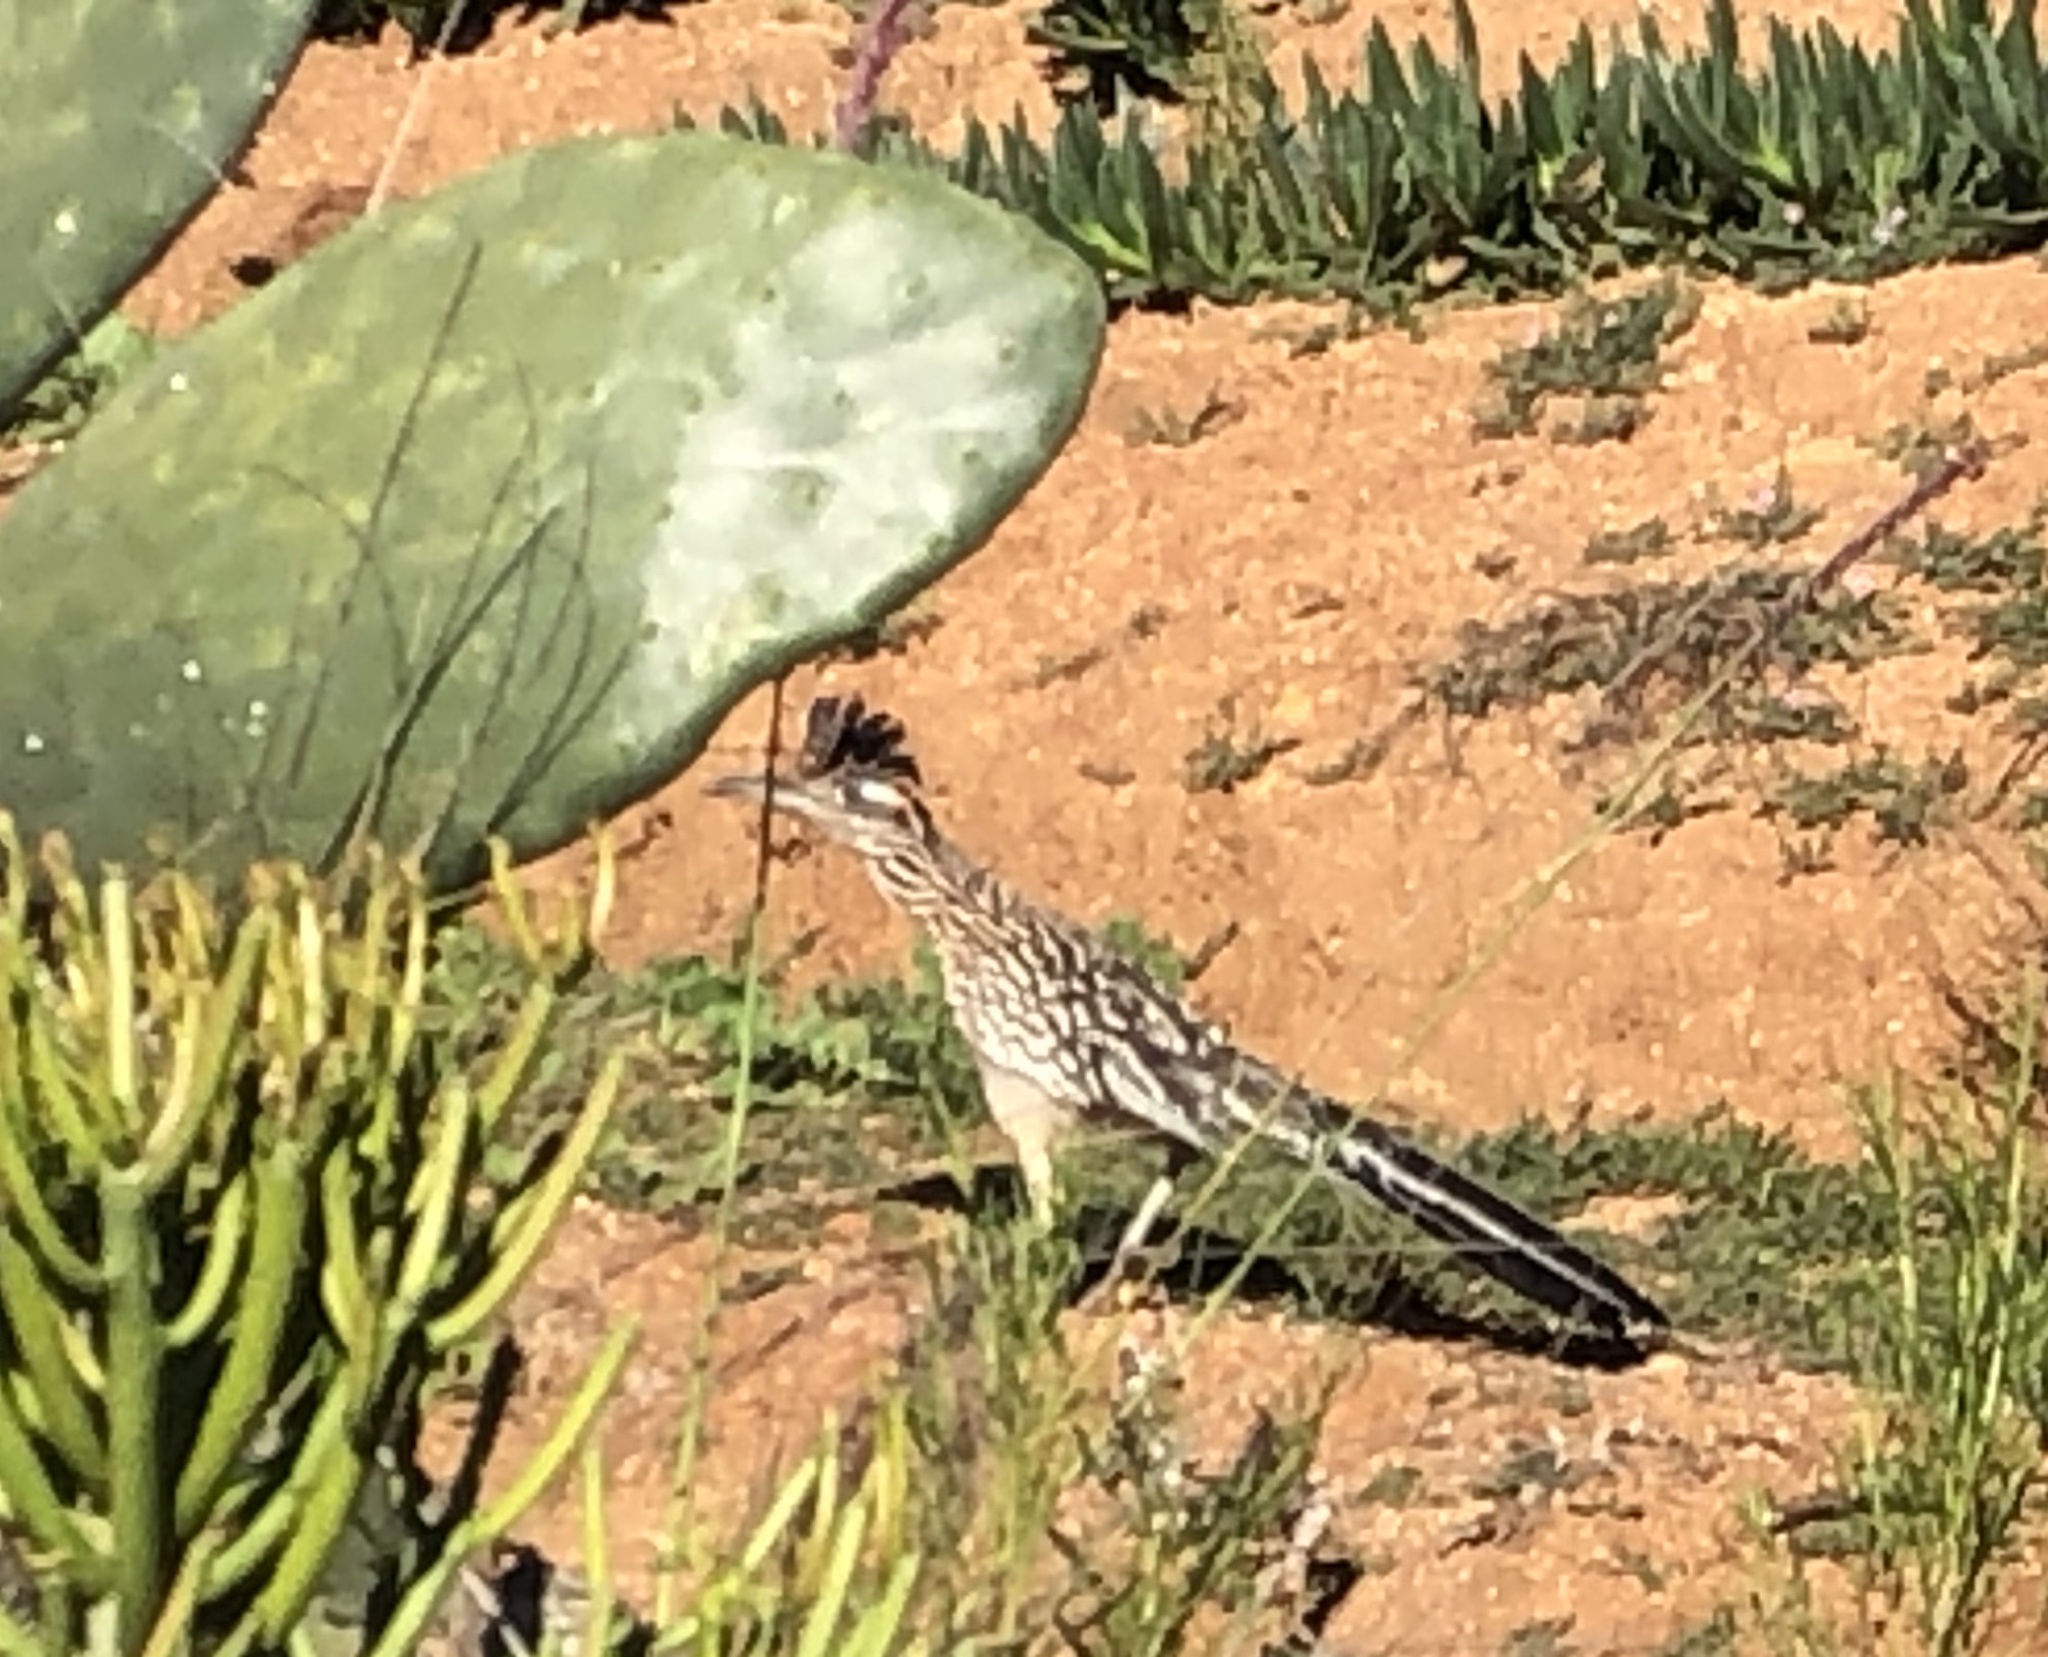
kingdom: Animalia
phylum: Chordata
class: Aves
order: Cuculiformes
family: Cuculidae
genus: Geococcyx
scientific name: Geococcyx californianus
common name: Greater roadrunner
